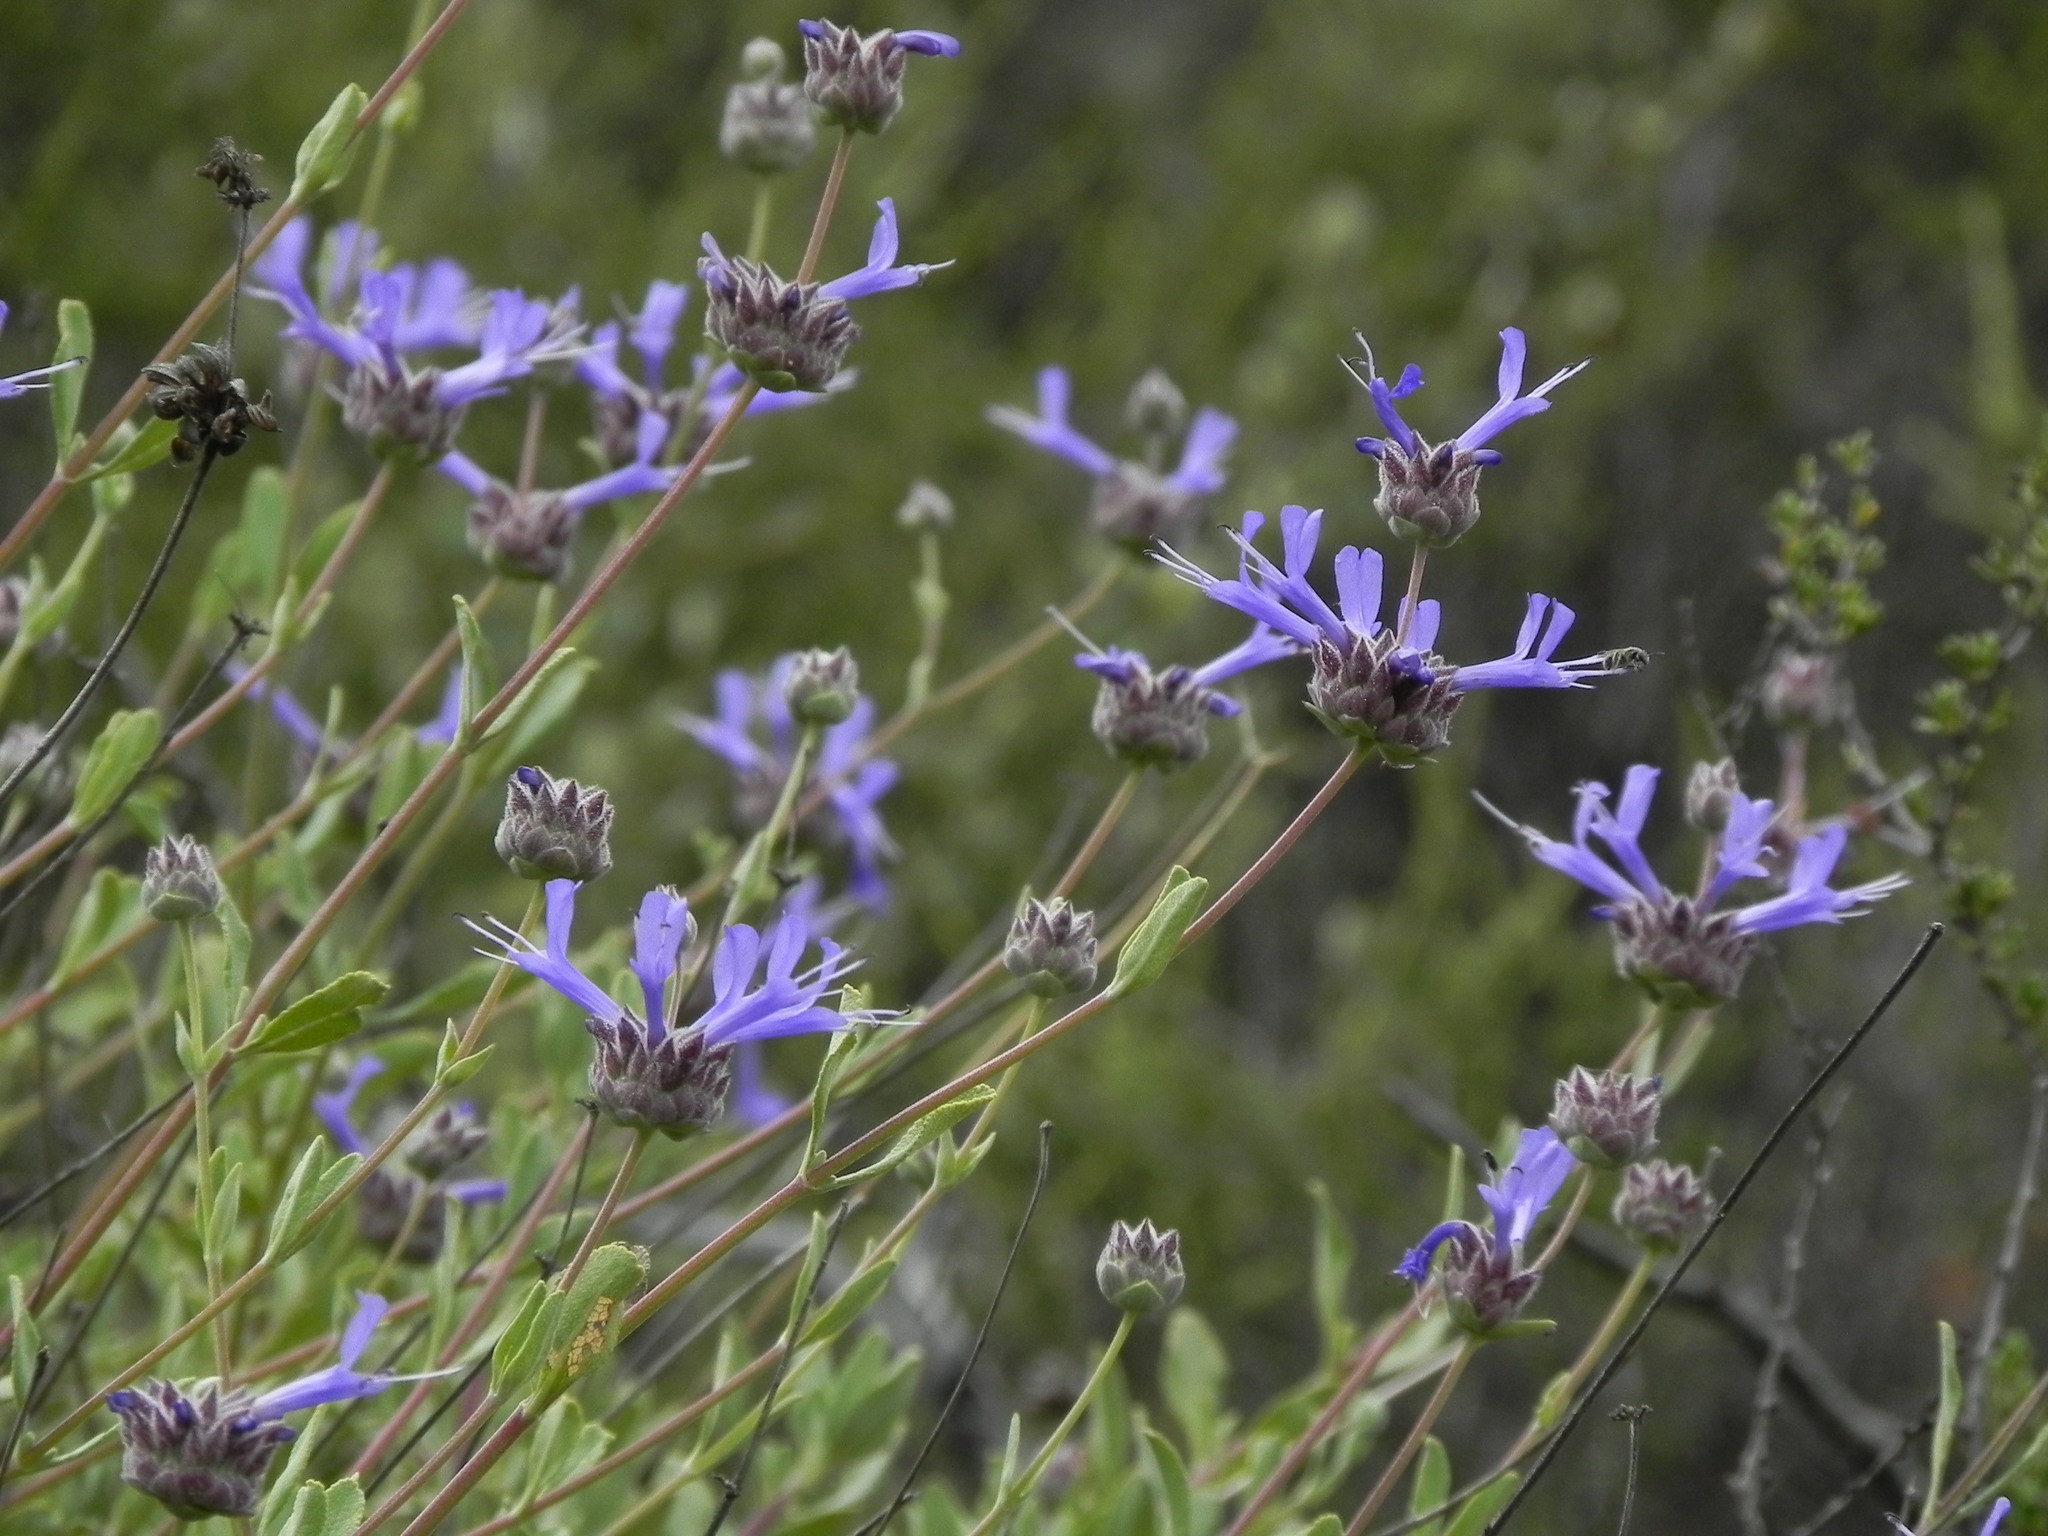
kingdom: Plantae
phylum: Tracheophyta
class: Magnoliopsida
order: Lamiales
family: Lamiaceae
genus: Salvia
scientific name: Salvia clevelandii
